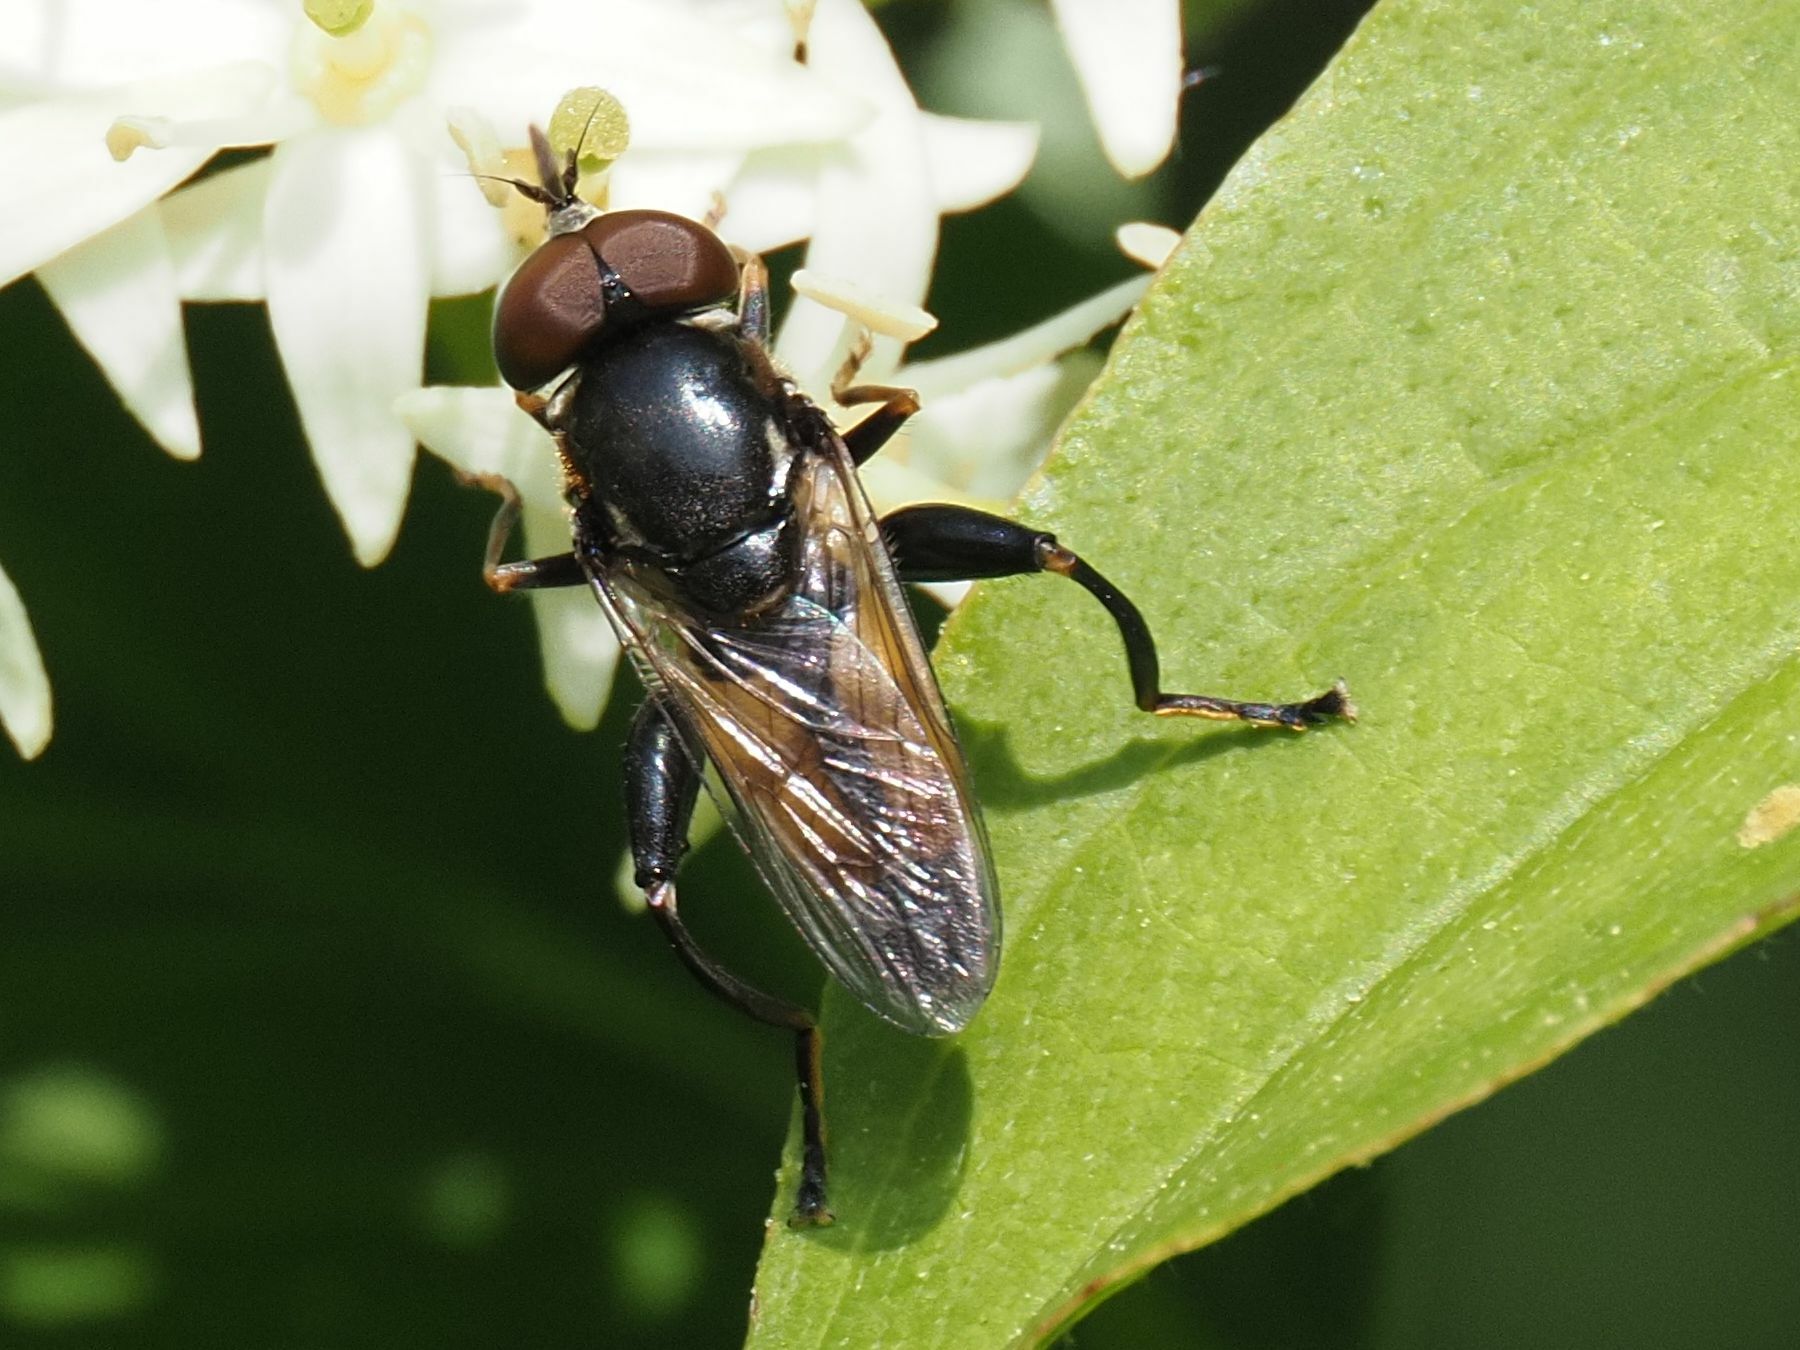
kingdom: Animalia
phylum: Arthropoda
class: Insecta
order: Diptera
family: Syrphidae
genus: Tropidia
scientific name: Tropidia scita
